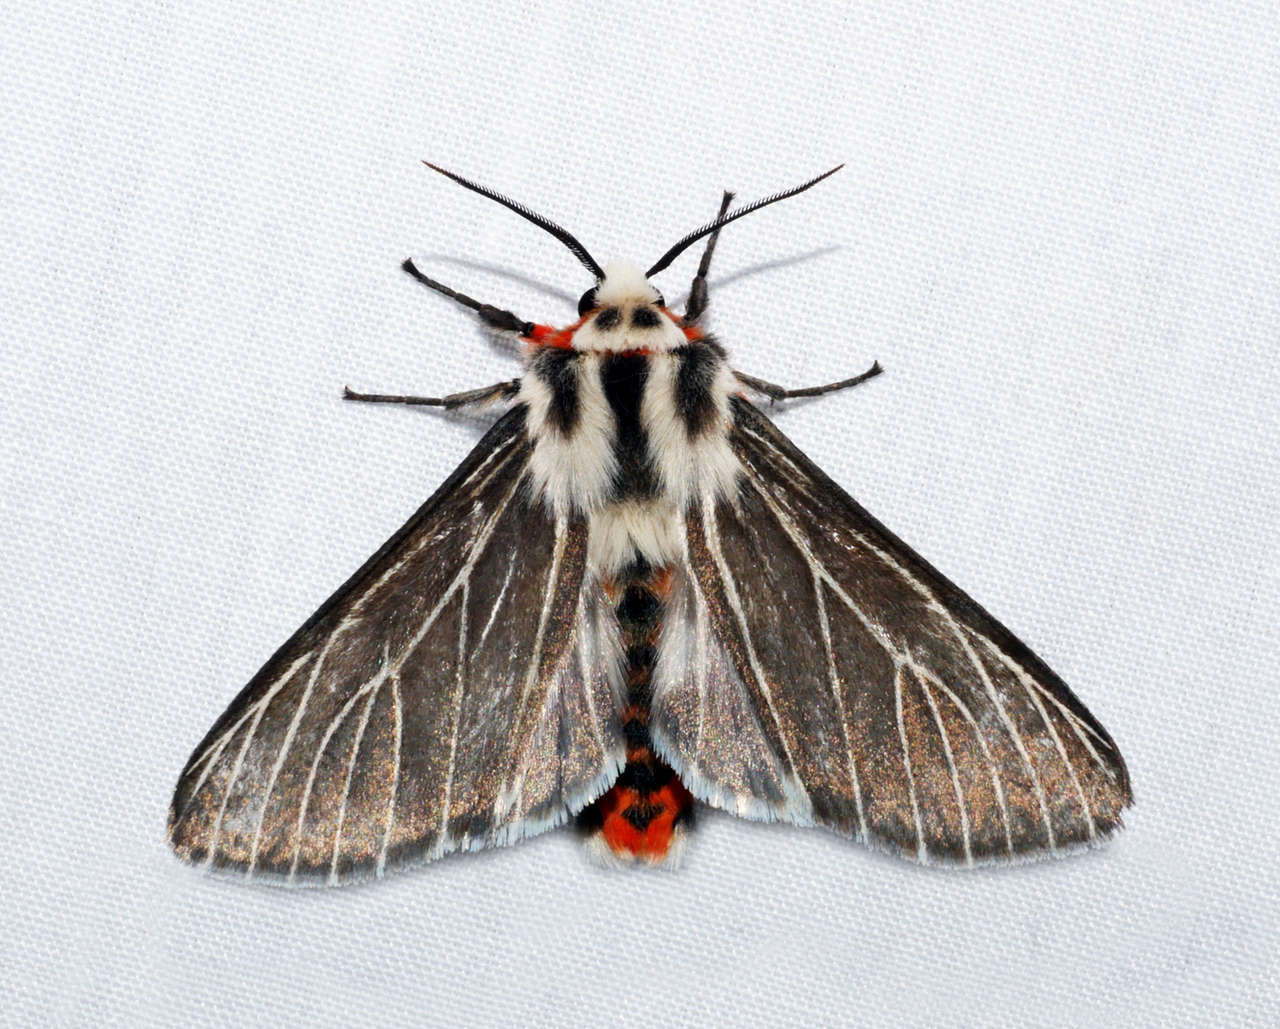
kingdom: Animalia
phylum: Arthropoda
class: Insecta
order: Lepidoptera
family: Erebidae
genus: Ardices
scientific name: Ardices glatignyi
